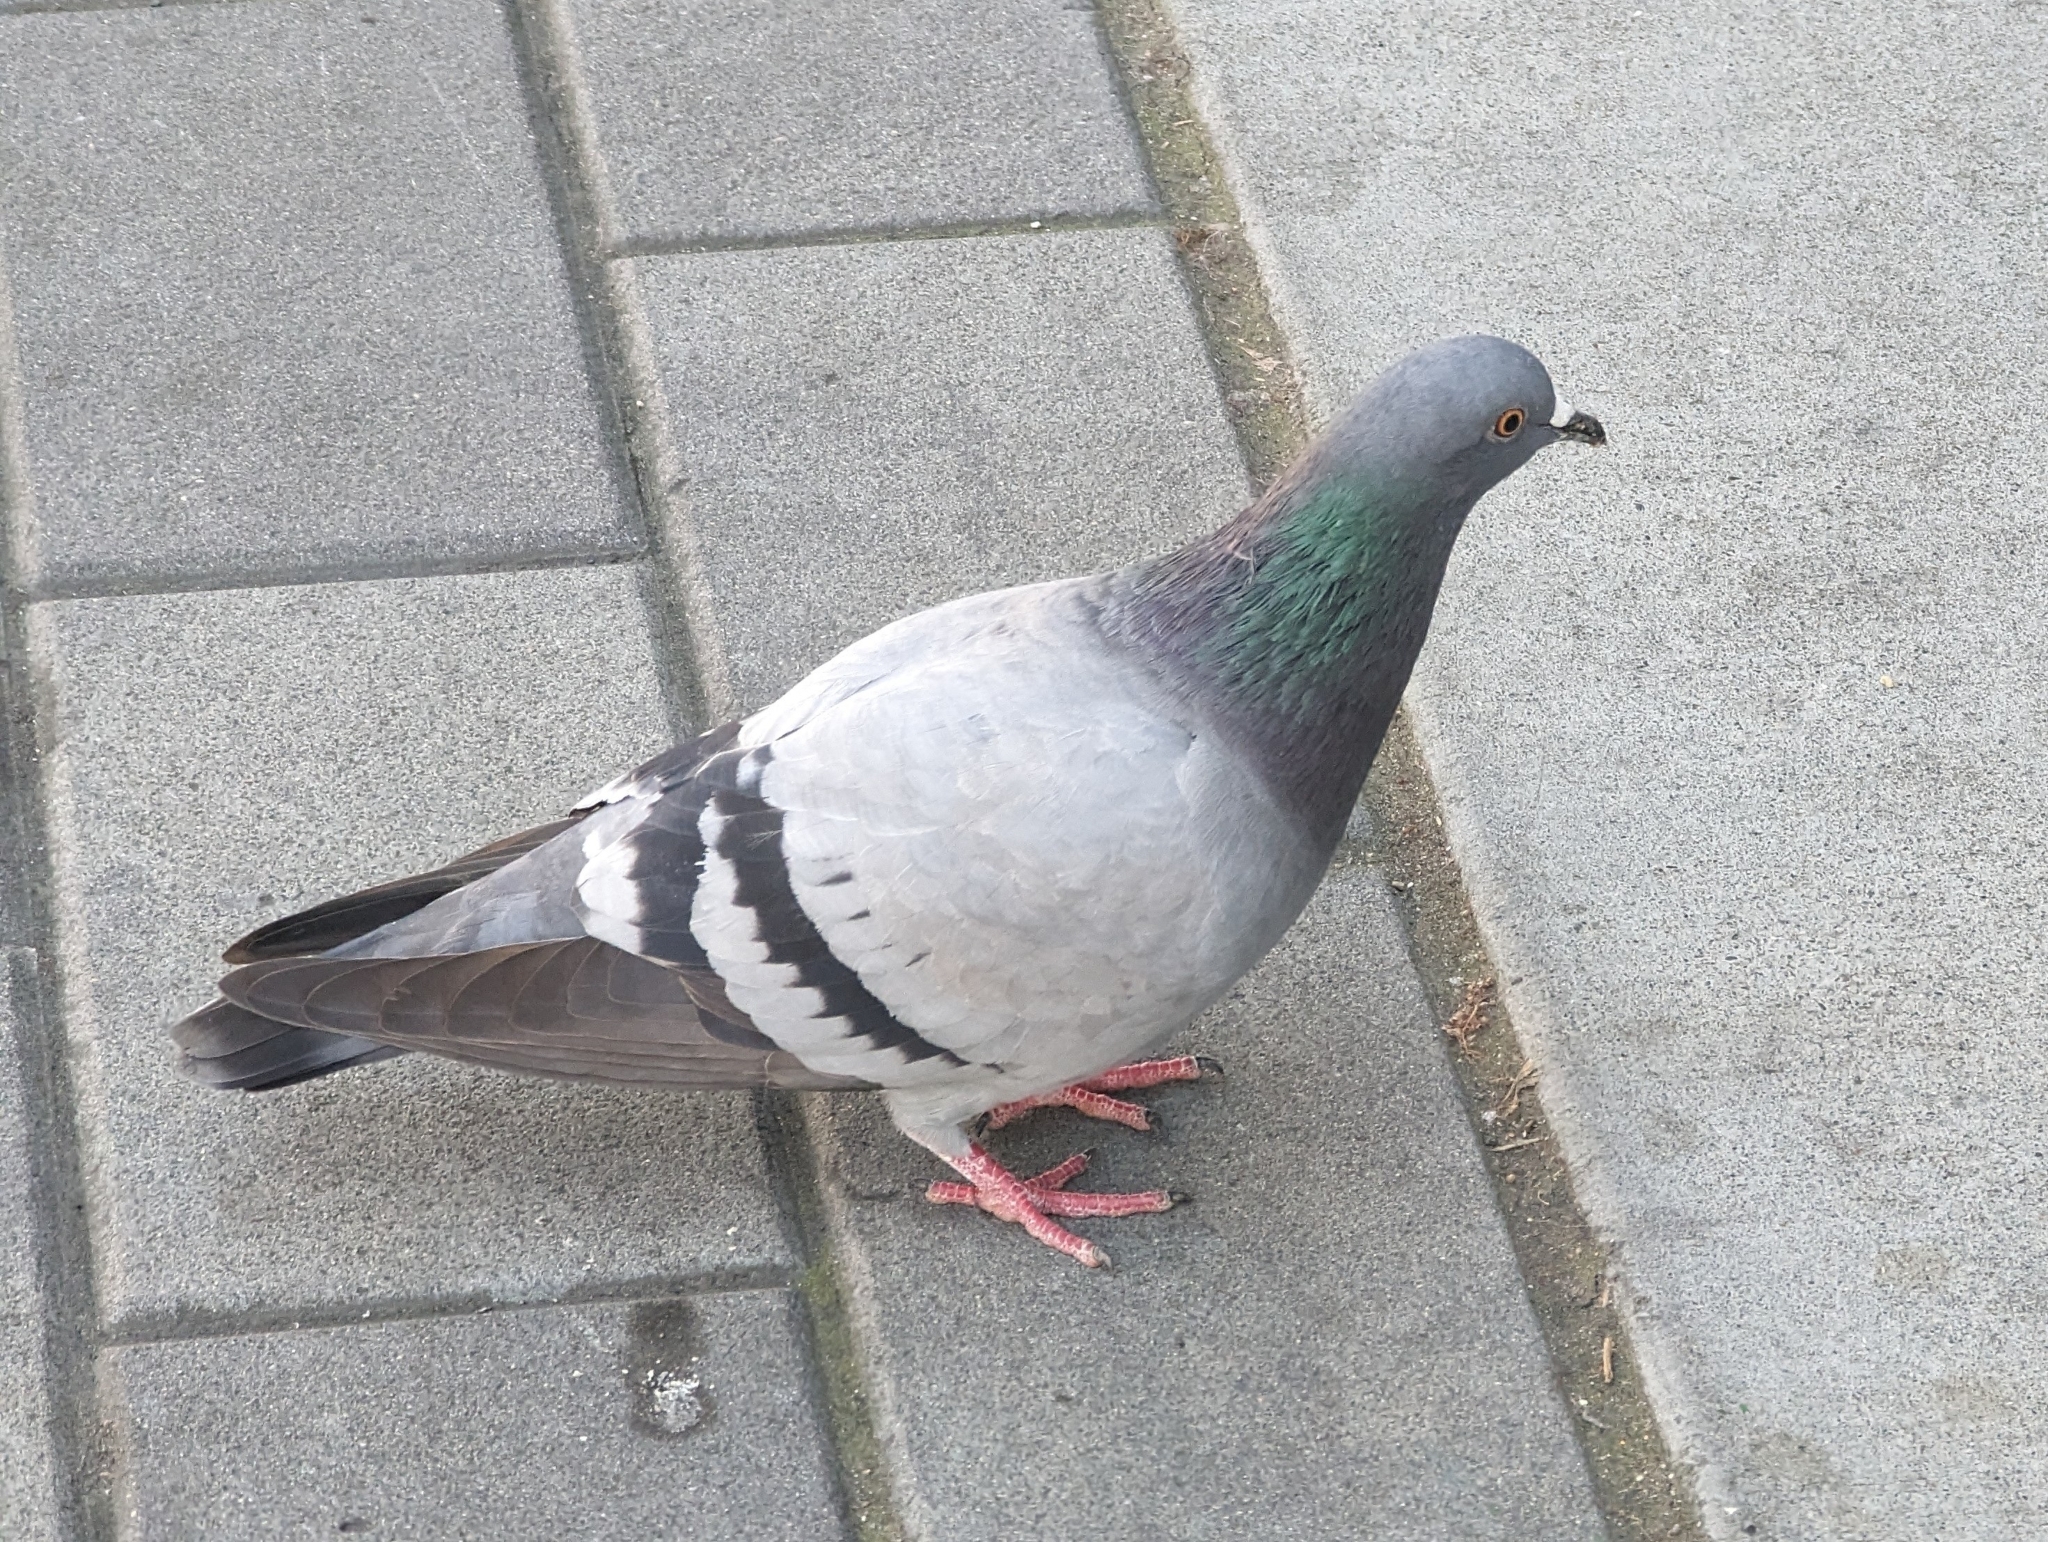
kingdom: Animalia
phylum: Chordata
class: Aves
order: Columbiformes
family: Columbidae
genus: Columba
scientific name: Columba livia
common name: Rock pigeon
